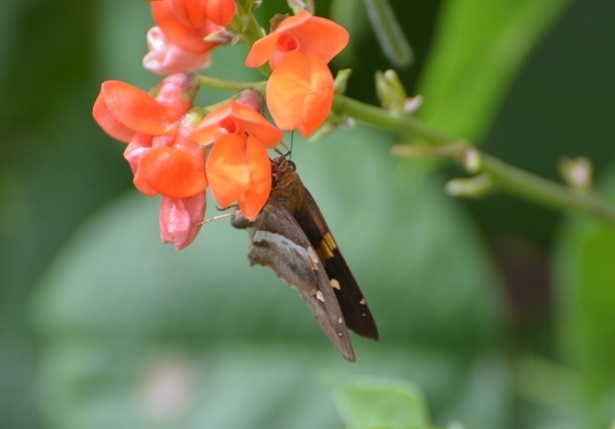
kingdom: Animalia
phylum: Arthropoda
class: Insecta
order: Lepidoptera
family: Hesperiidae
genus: Aguna
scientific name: Aguna asander
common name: Gold-spotted aguna
